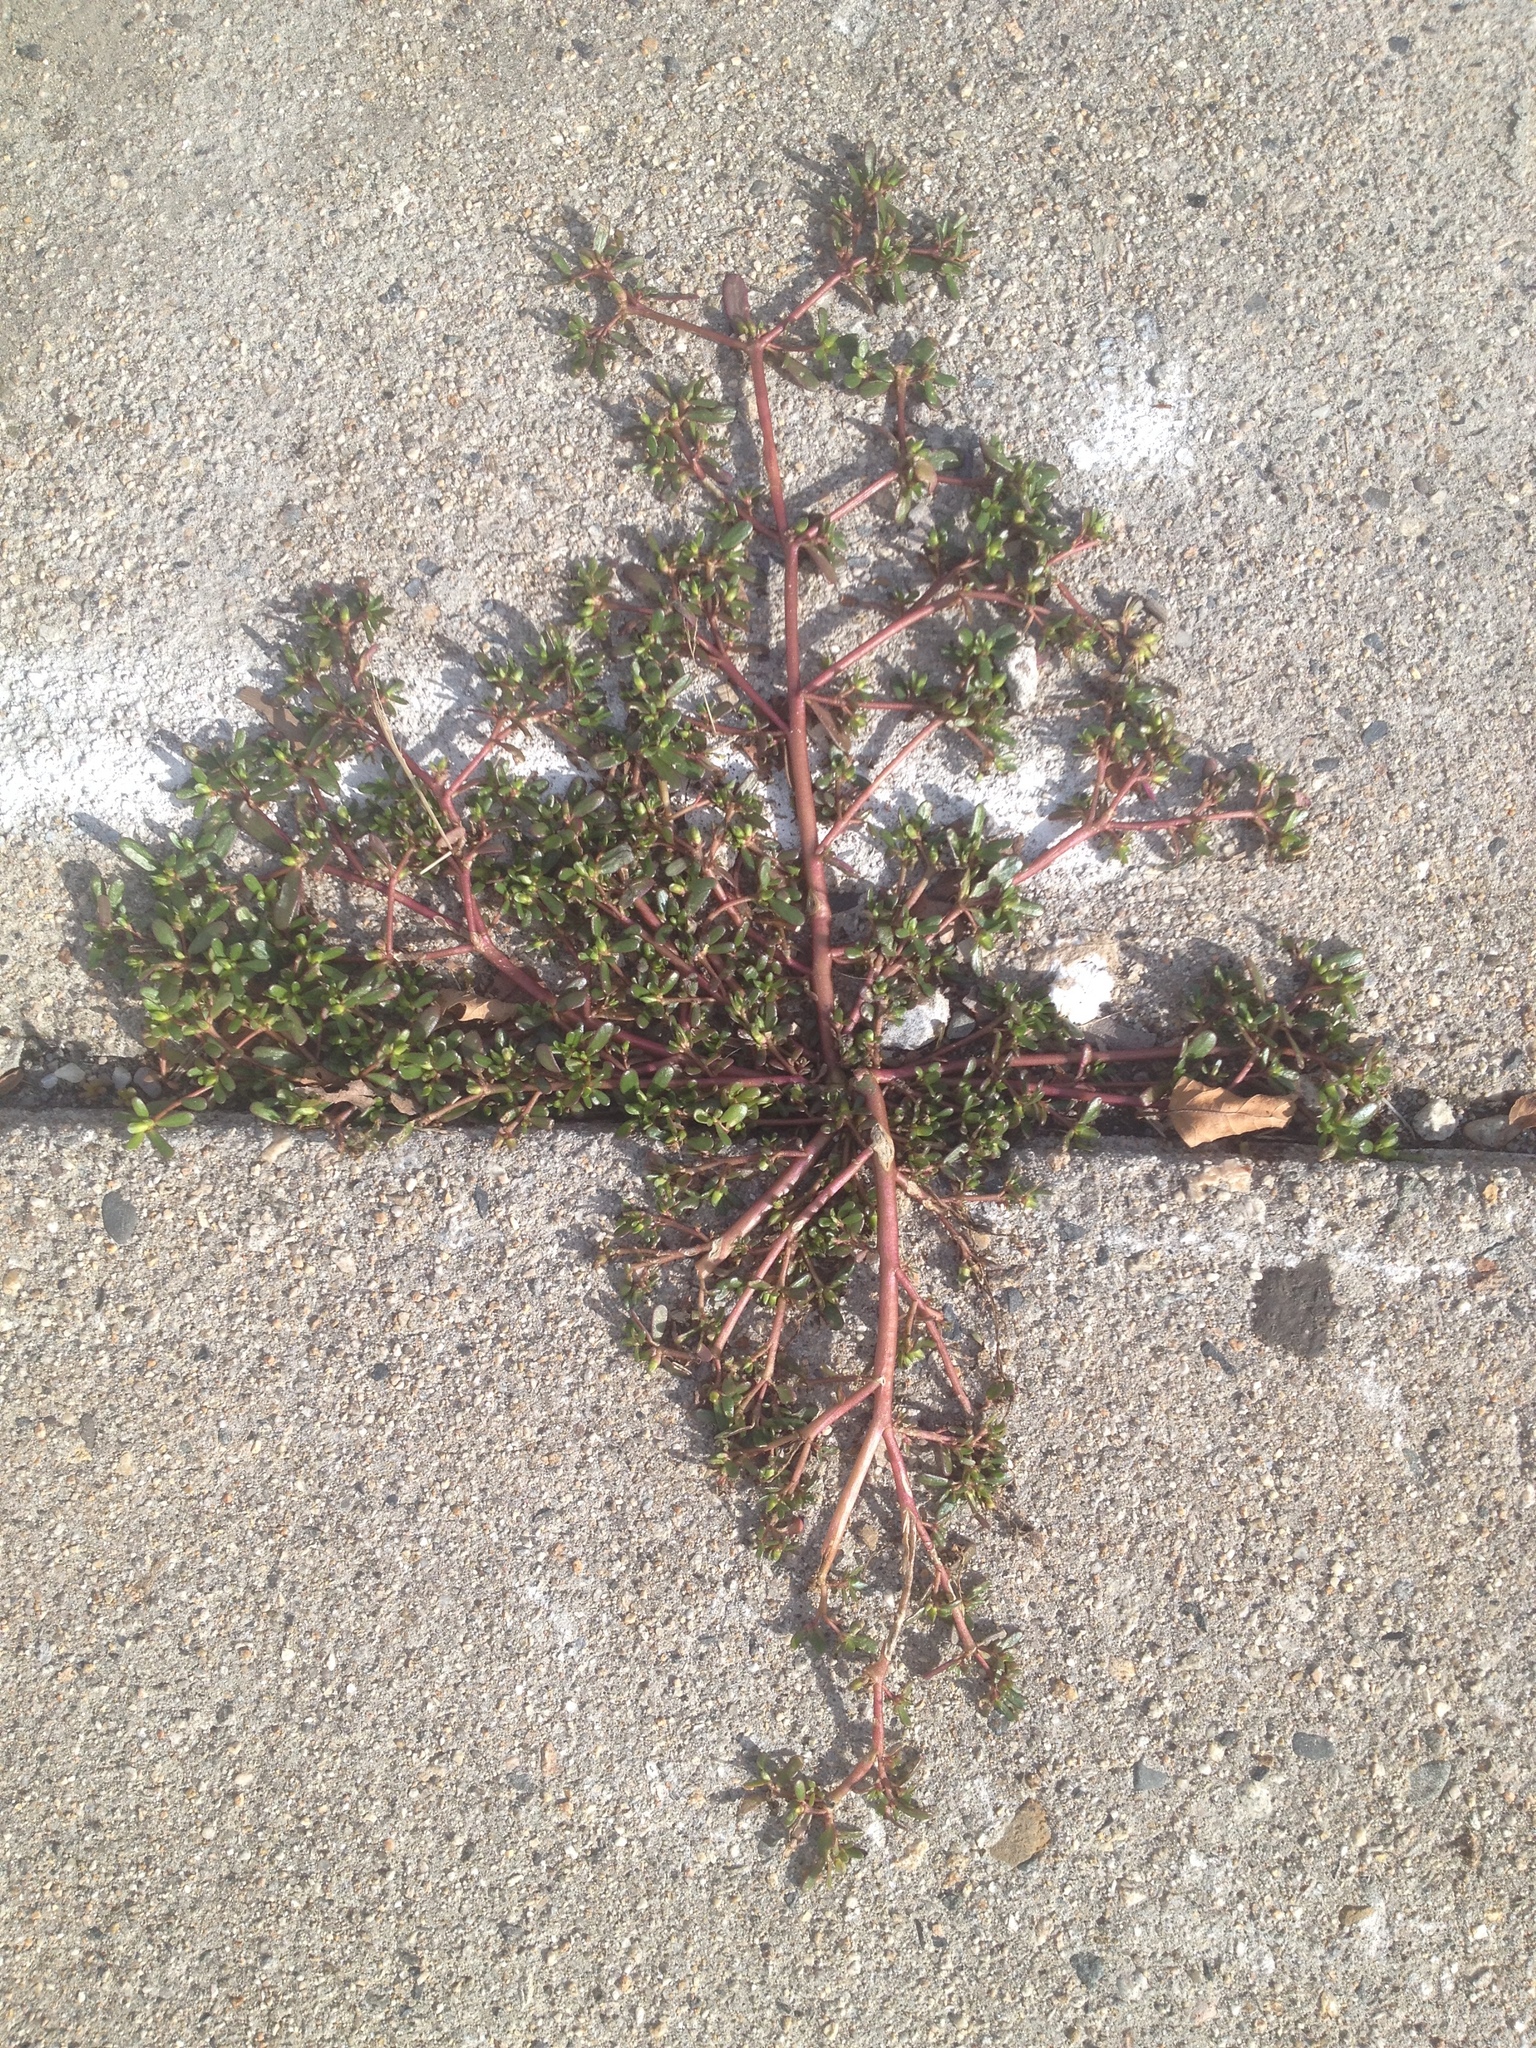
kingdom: Plantae
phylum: Tracheophyta
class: Magnoliopsida
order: Caryophyllales
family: Portulacaceae
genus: Portulaca
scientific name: Portulaca oleracea
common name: Common purslane
